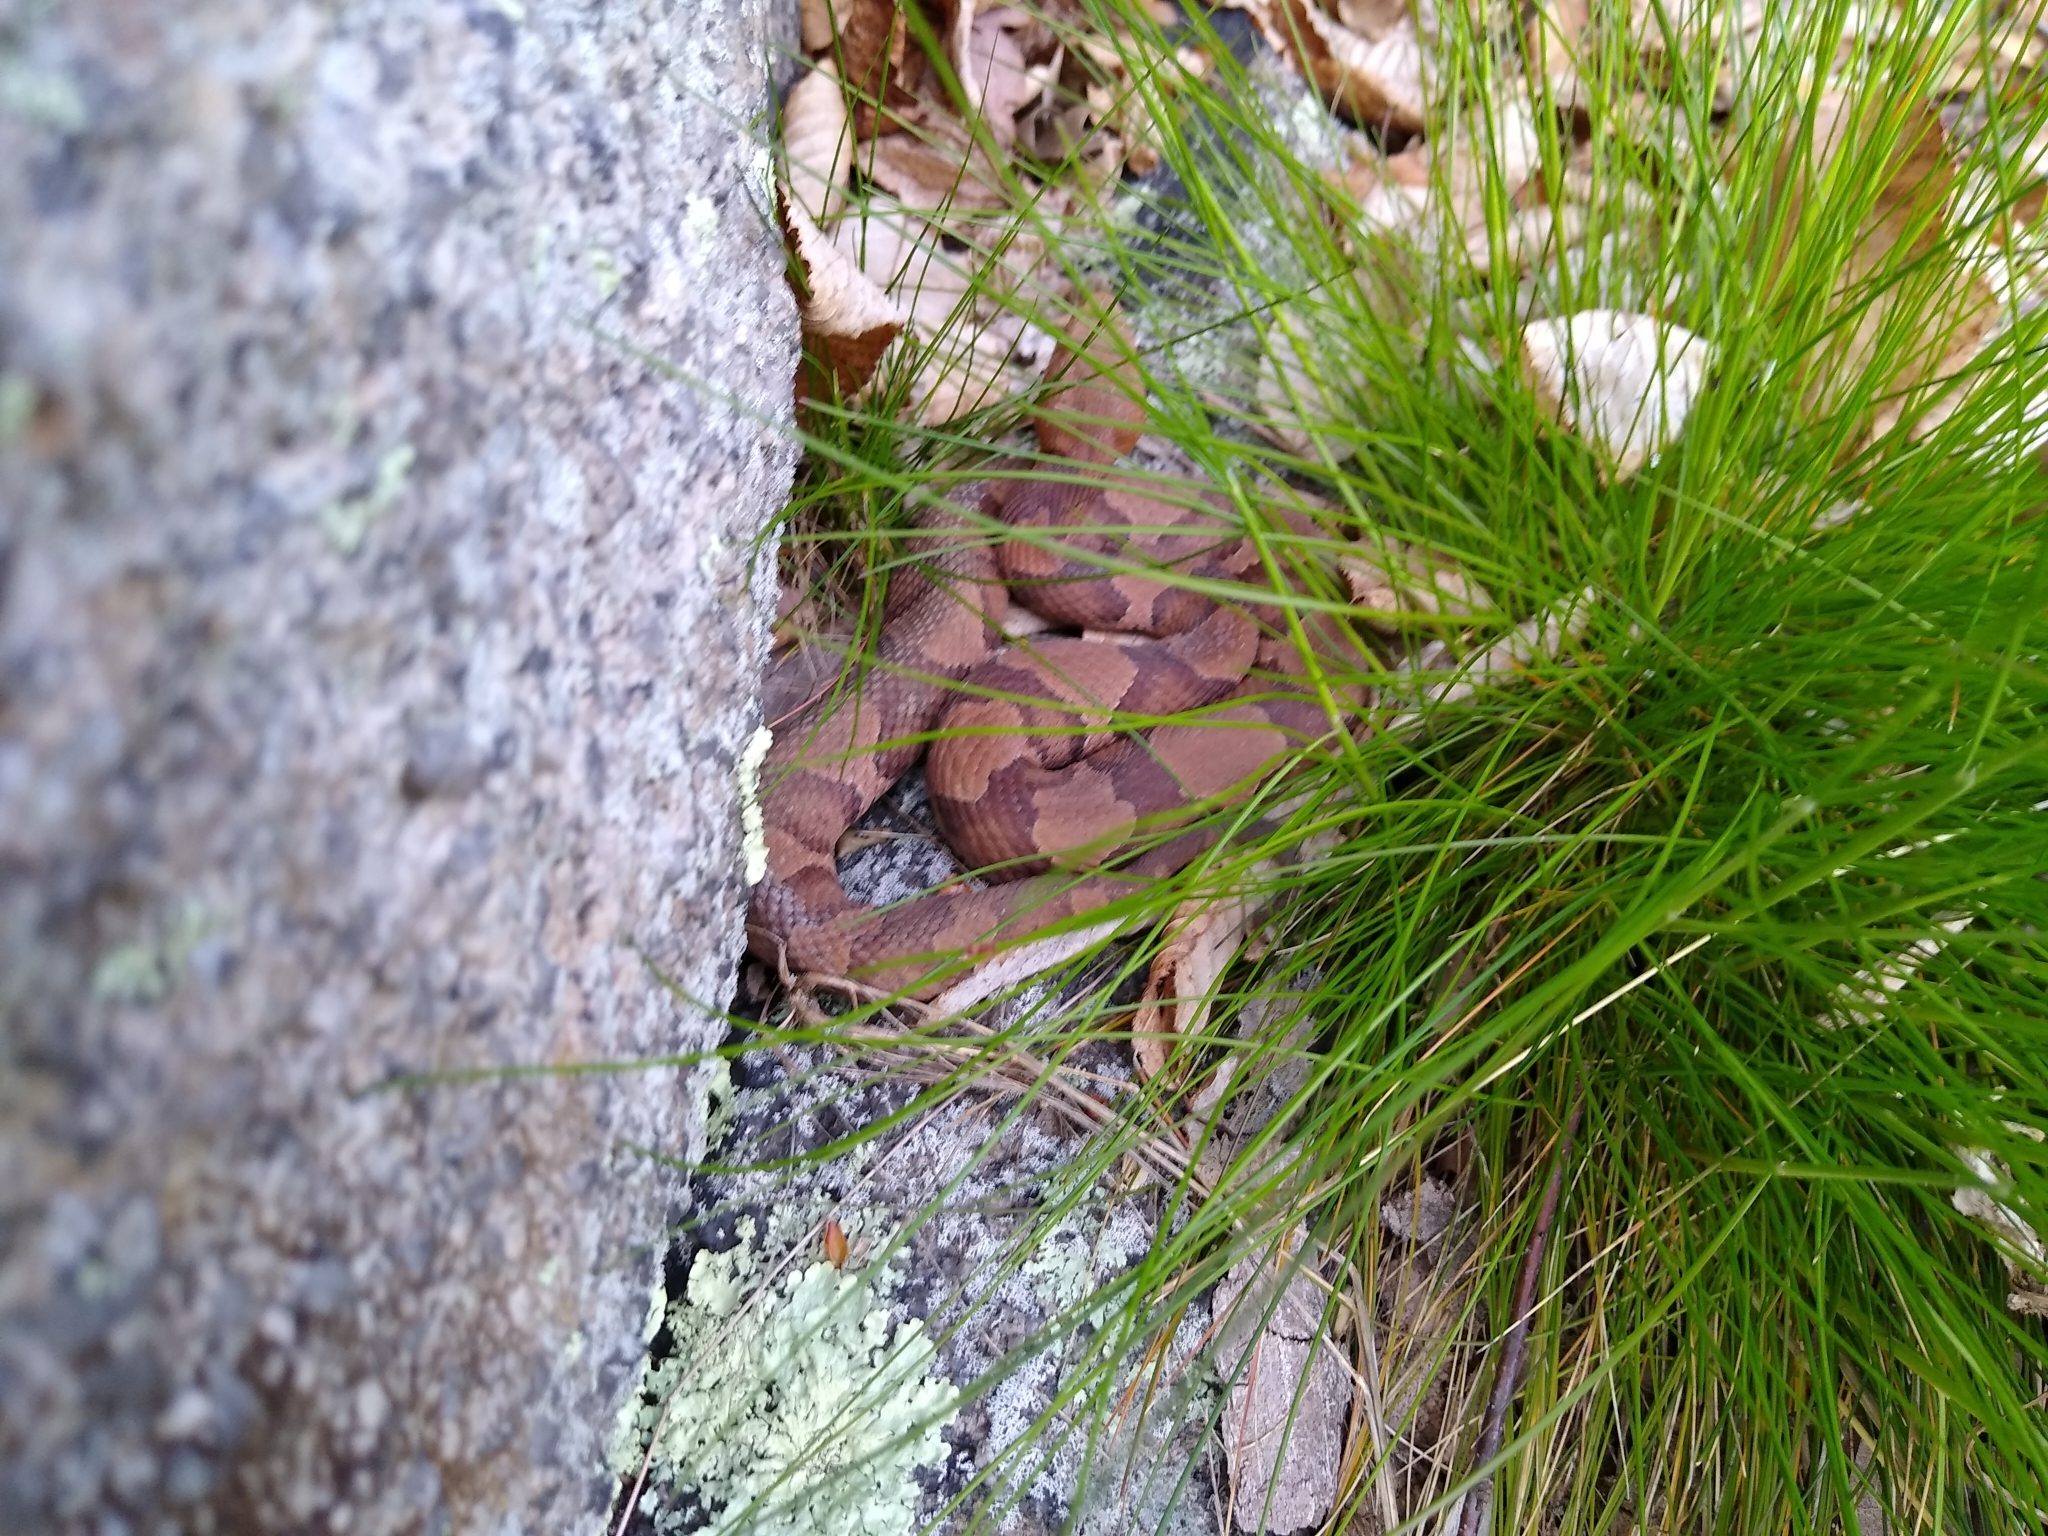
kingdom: Animalia
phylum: Chordata
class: Squamata
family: Viperidae
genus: Agkistrodon
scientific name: Agkistrodon contortrix
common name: Northern copperhead
